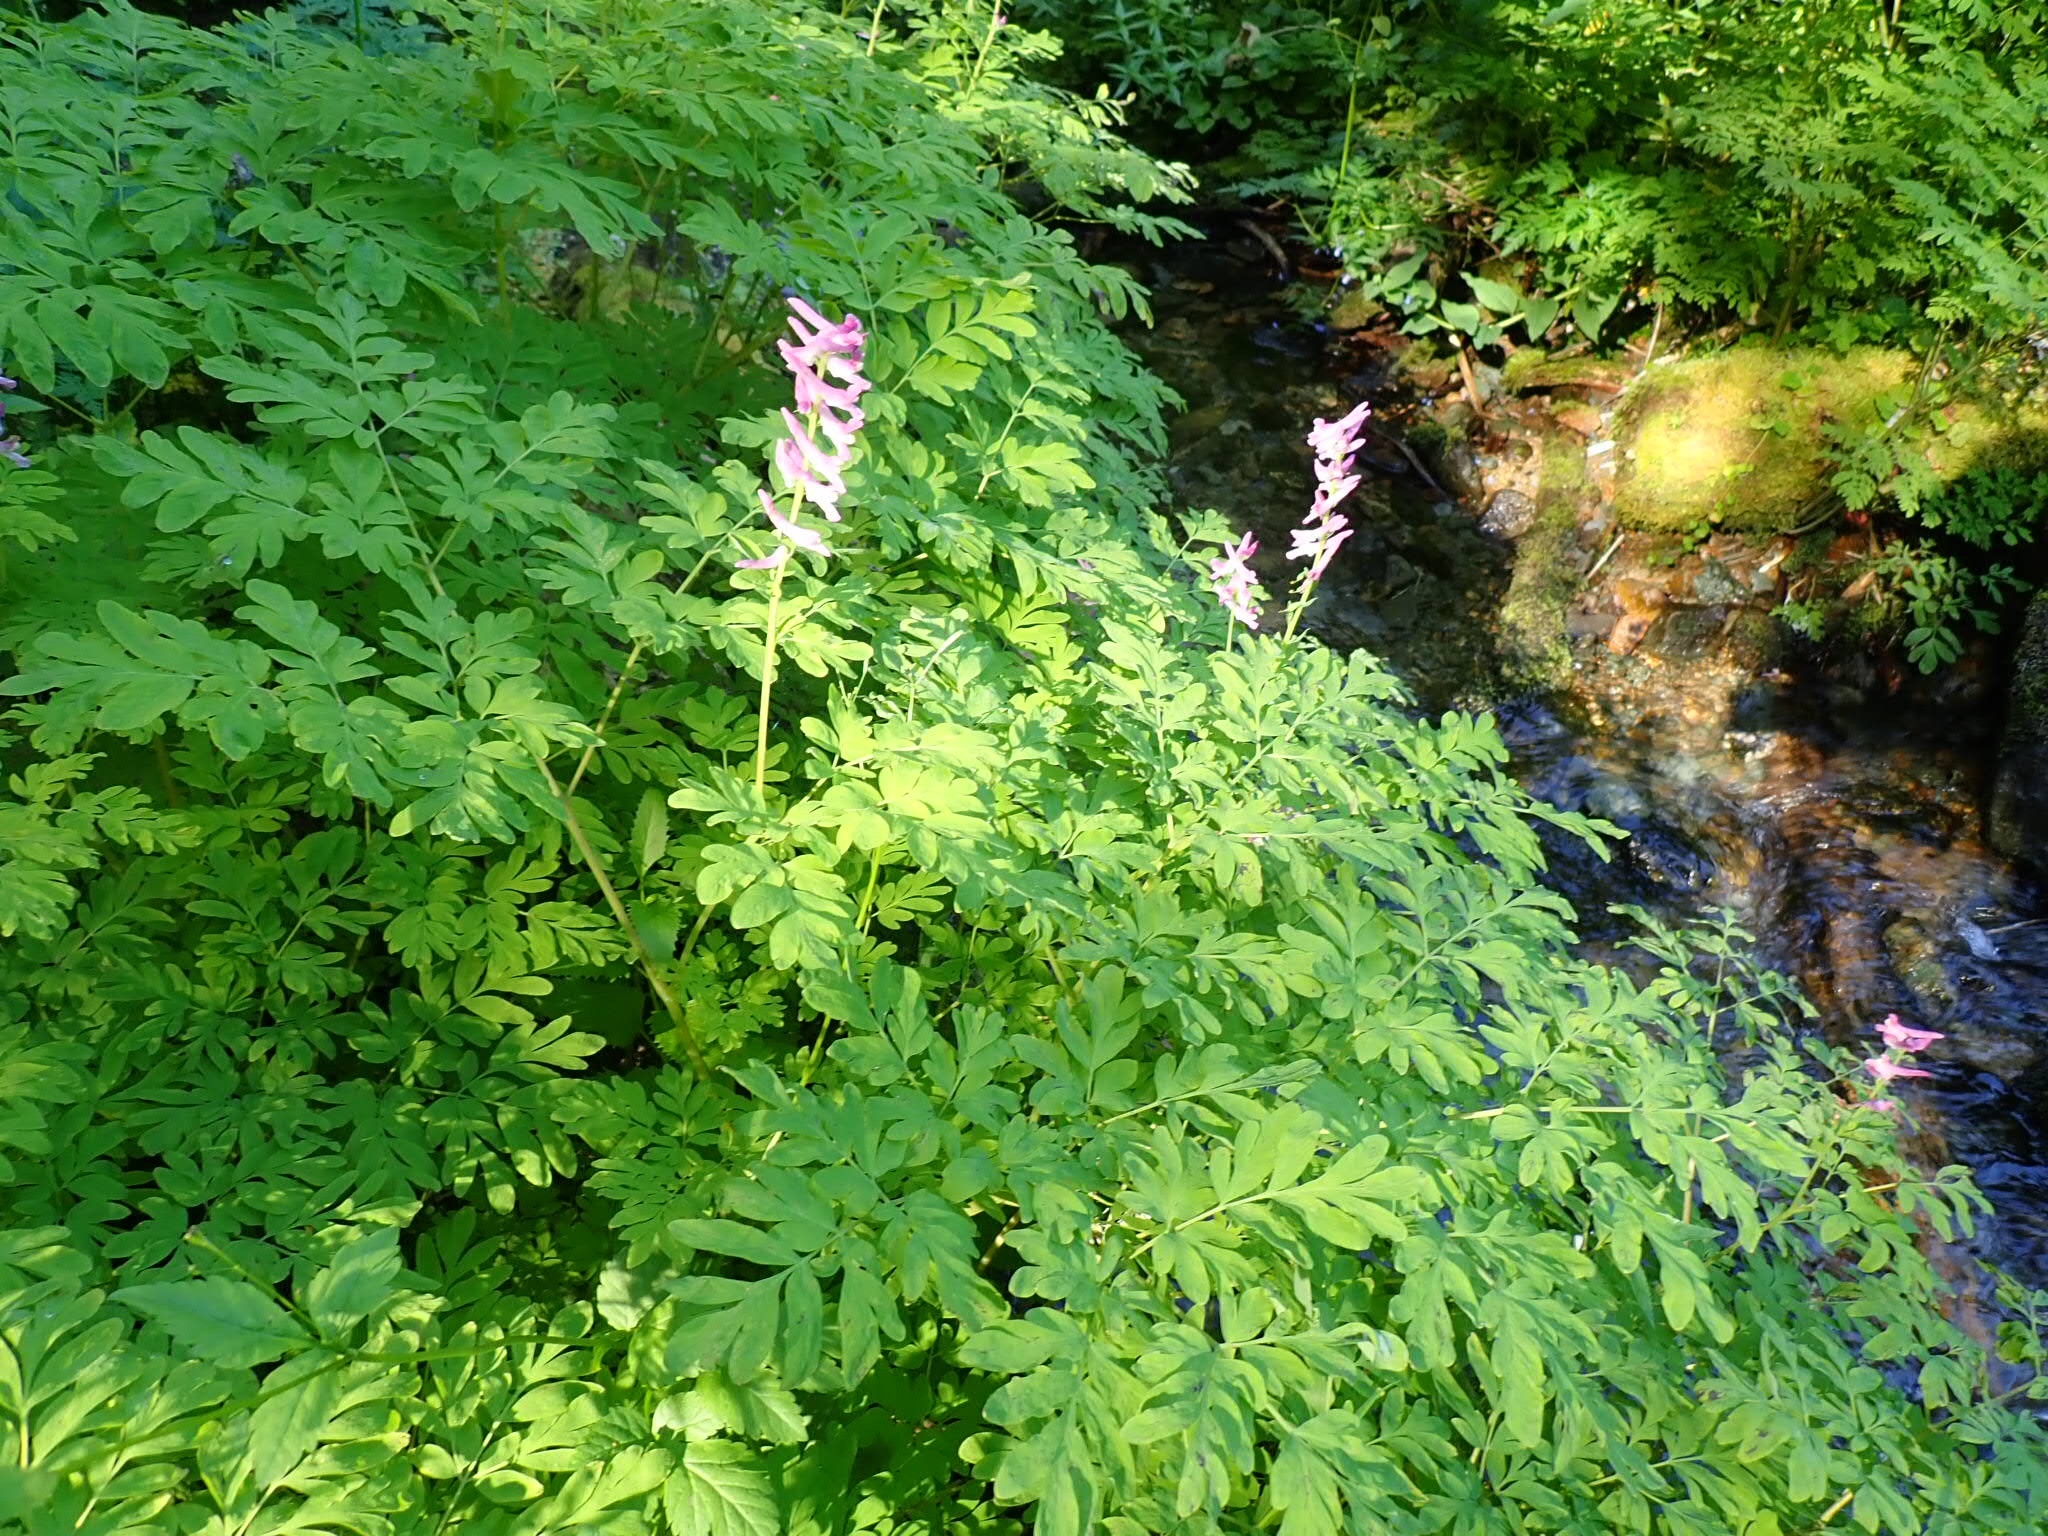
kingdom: Plantae
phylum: Tracheophyta
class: Magnoliopsida
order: Ranunculales
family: Papaveraceae
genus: Corydalis
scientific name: Corydalis scouleri
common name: Scouler's corydalis
